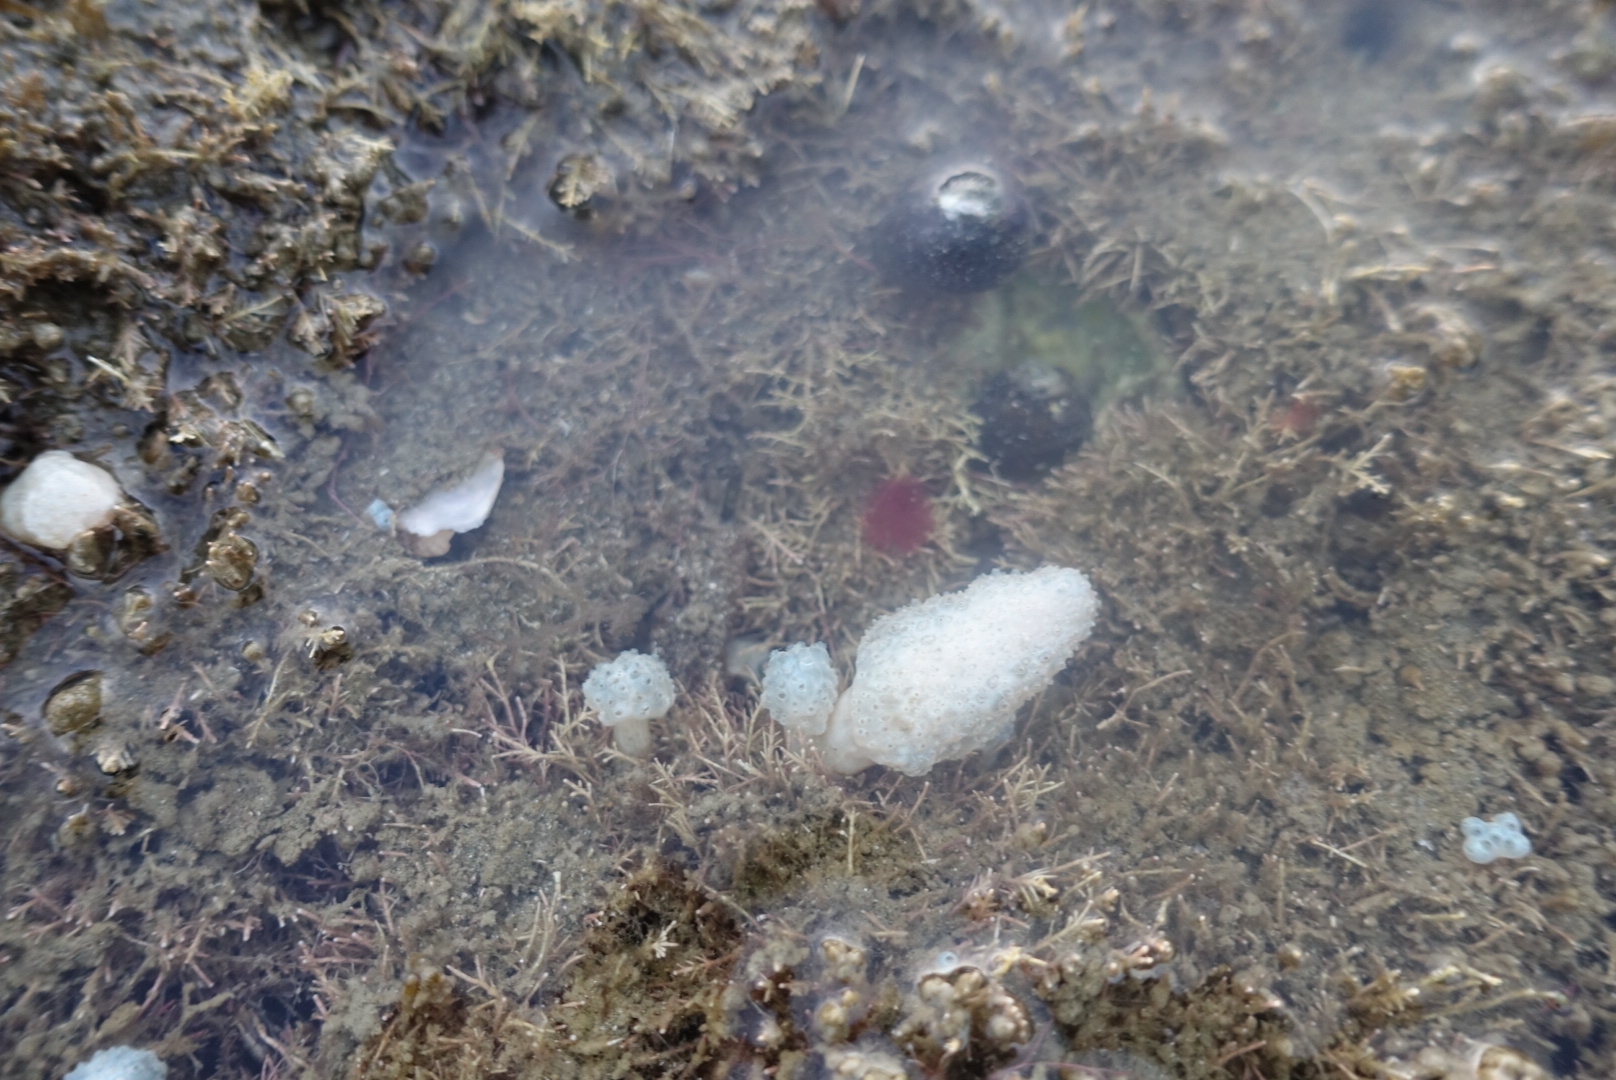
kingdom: Animalia
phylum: Chordata
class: Ascidiacea
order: Aplousobranchia
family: Polycitoridae
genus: Eudistoma
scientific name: Eudistoma elongatum
